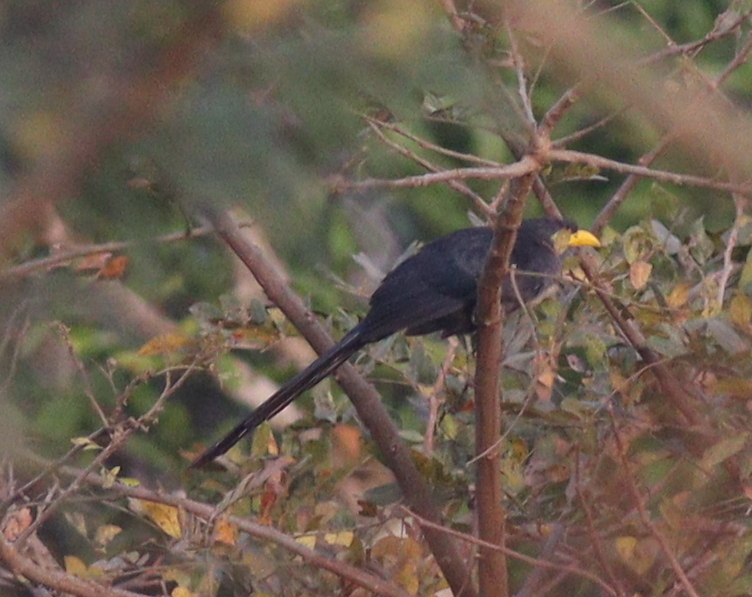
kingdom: Animalia
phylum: Chordata
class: Aves
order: Cuculiformes
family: Cuculidae
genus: Ceuthmochares
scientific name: Ceuthmochares aereus
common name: Blue malkoha
